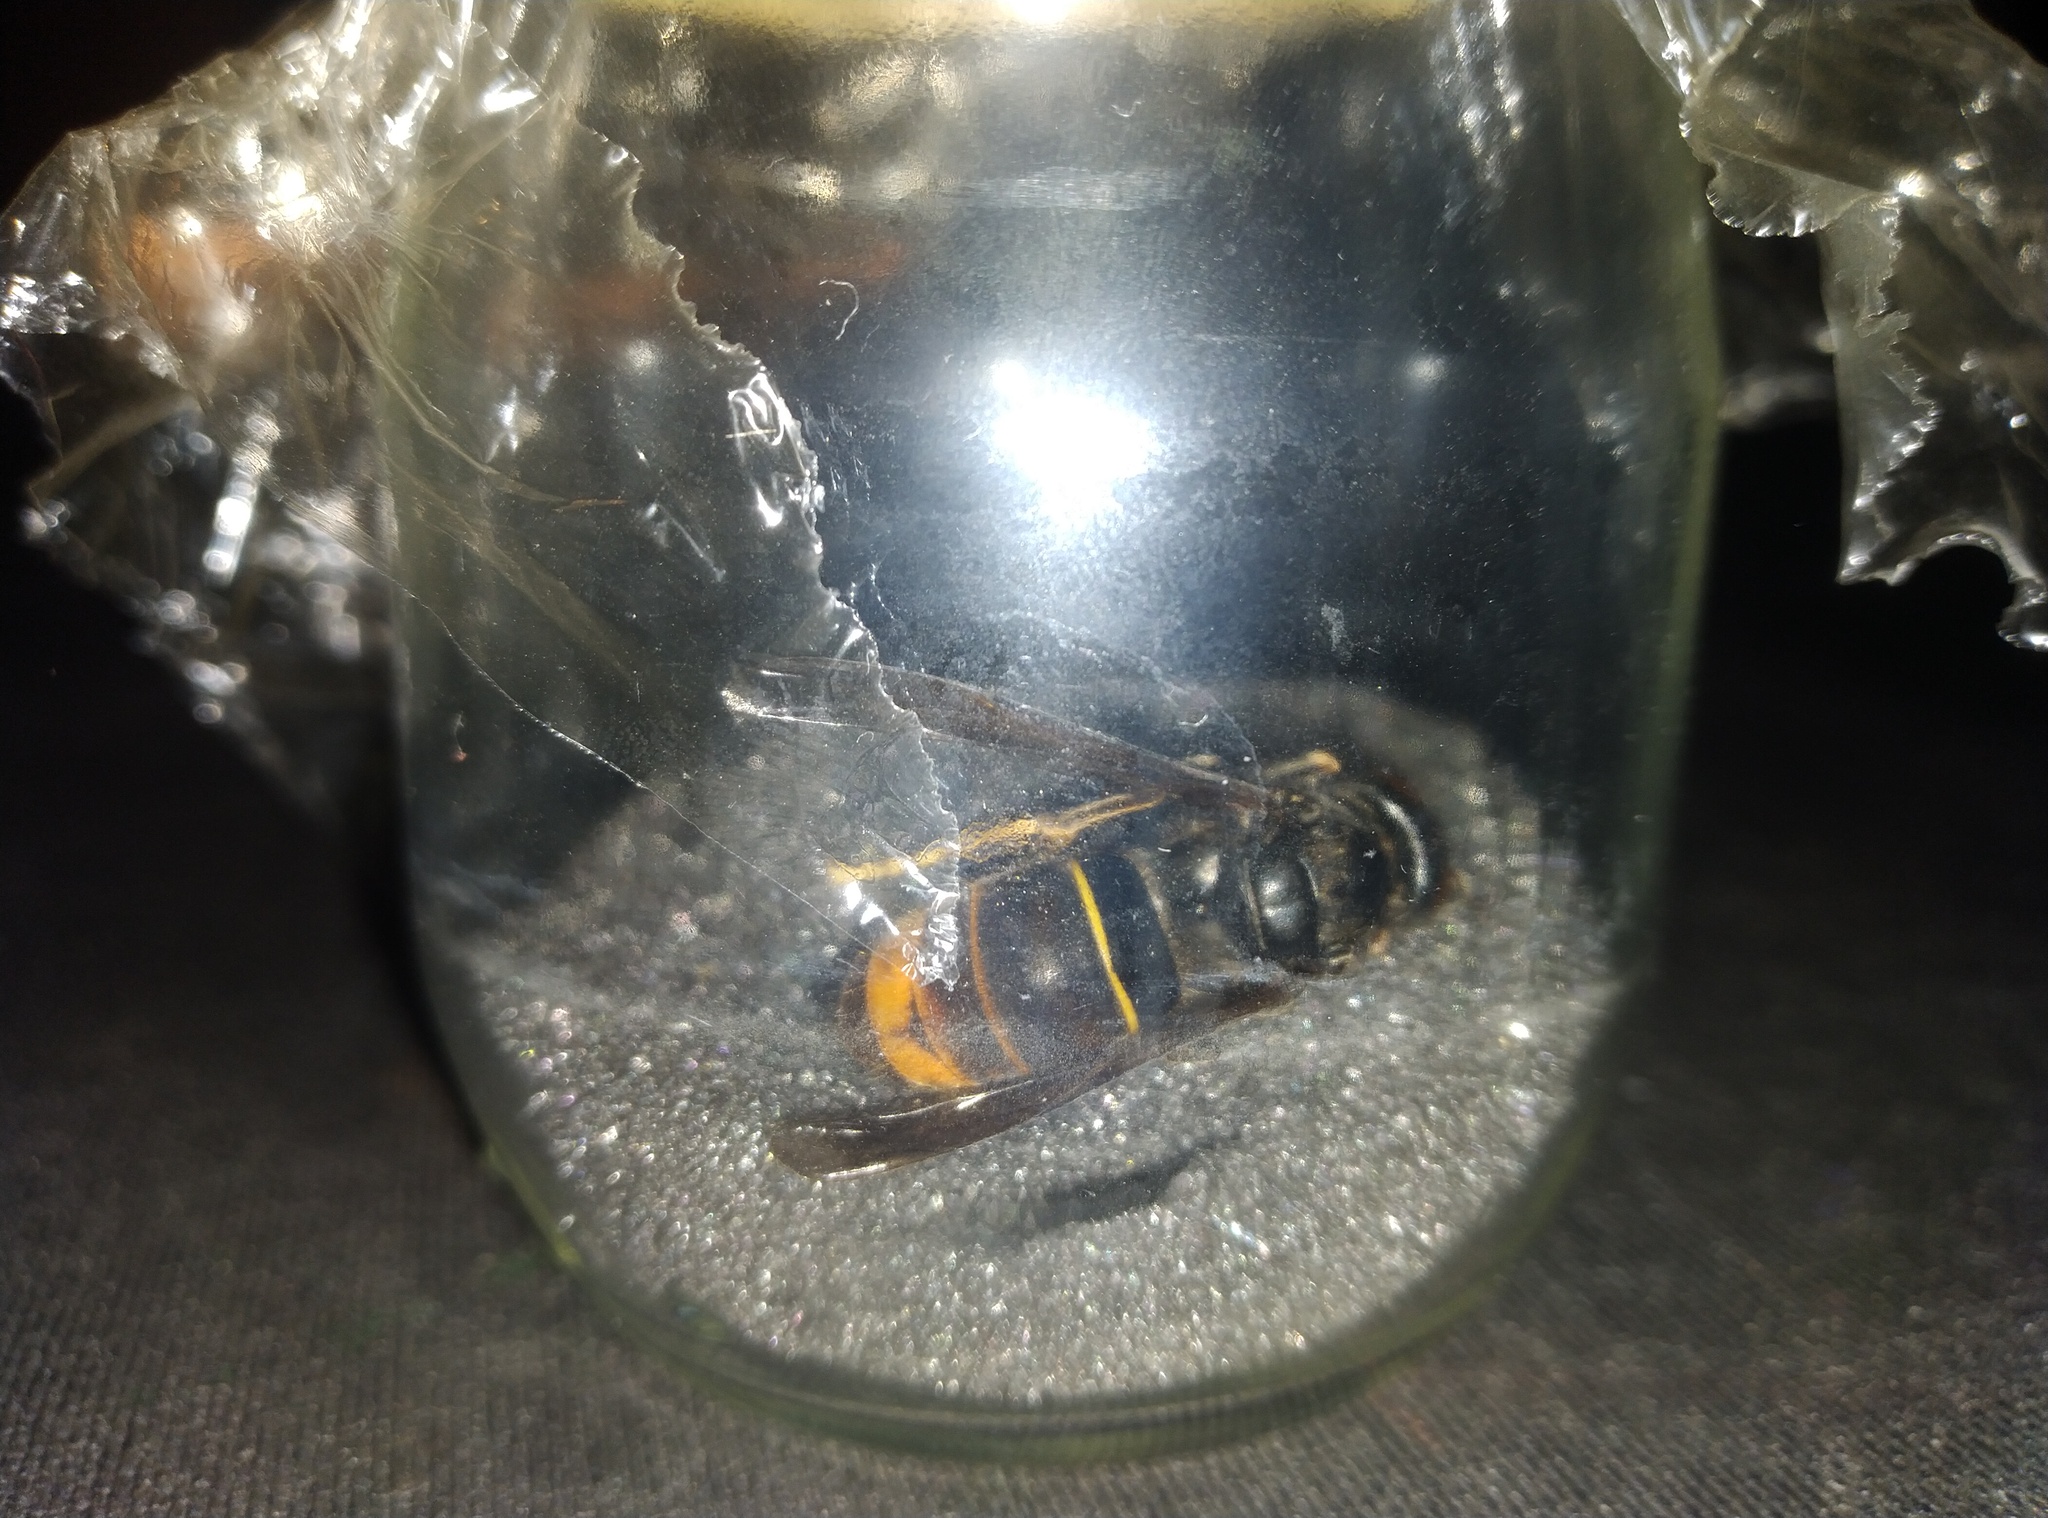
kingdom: Animalia
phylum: Arthropoda
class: Insecta
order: Hymenoptera
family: Vespidae
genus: Vespa
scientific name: Vespa velutina
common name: Asian hornet
